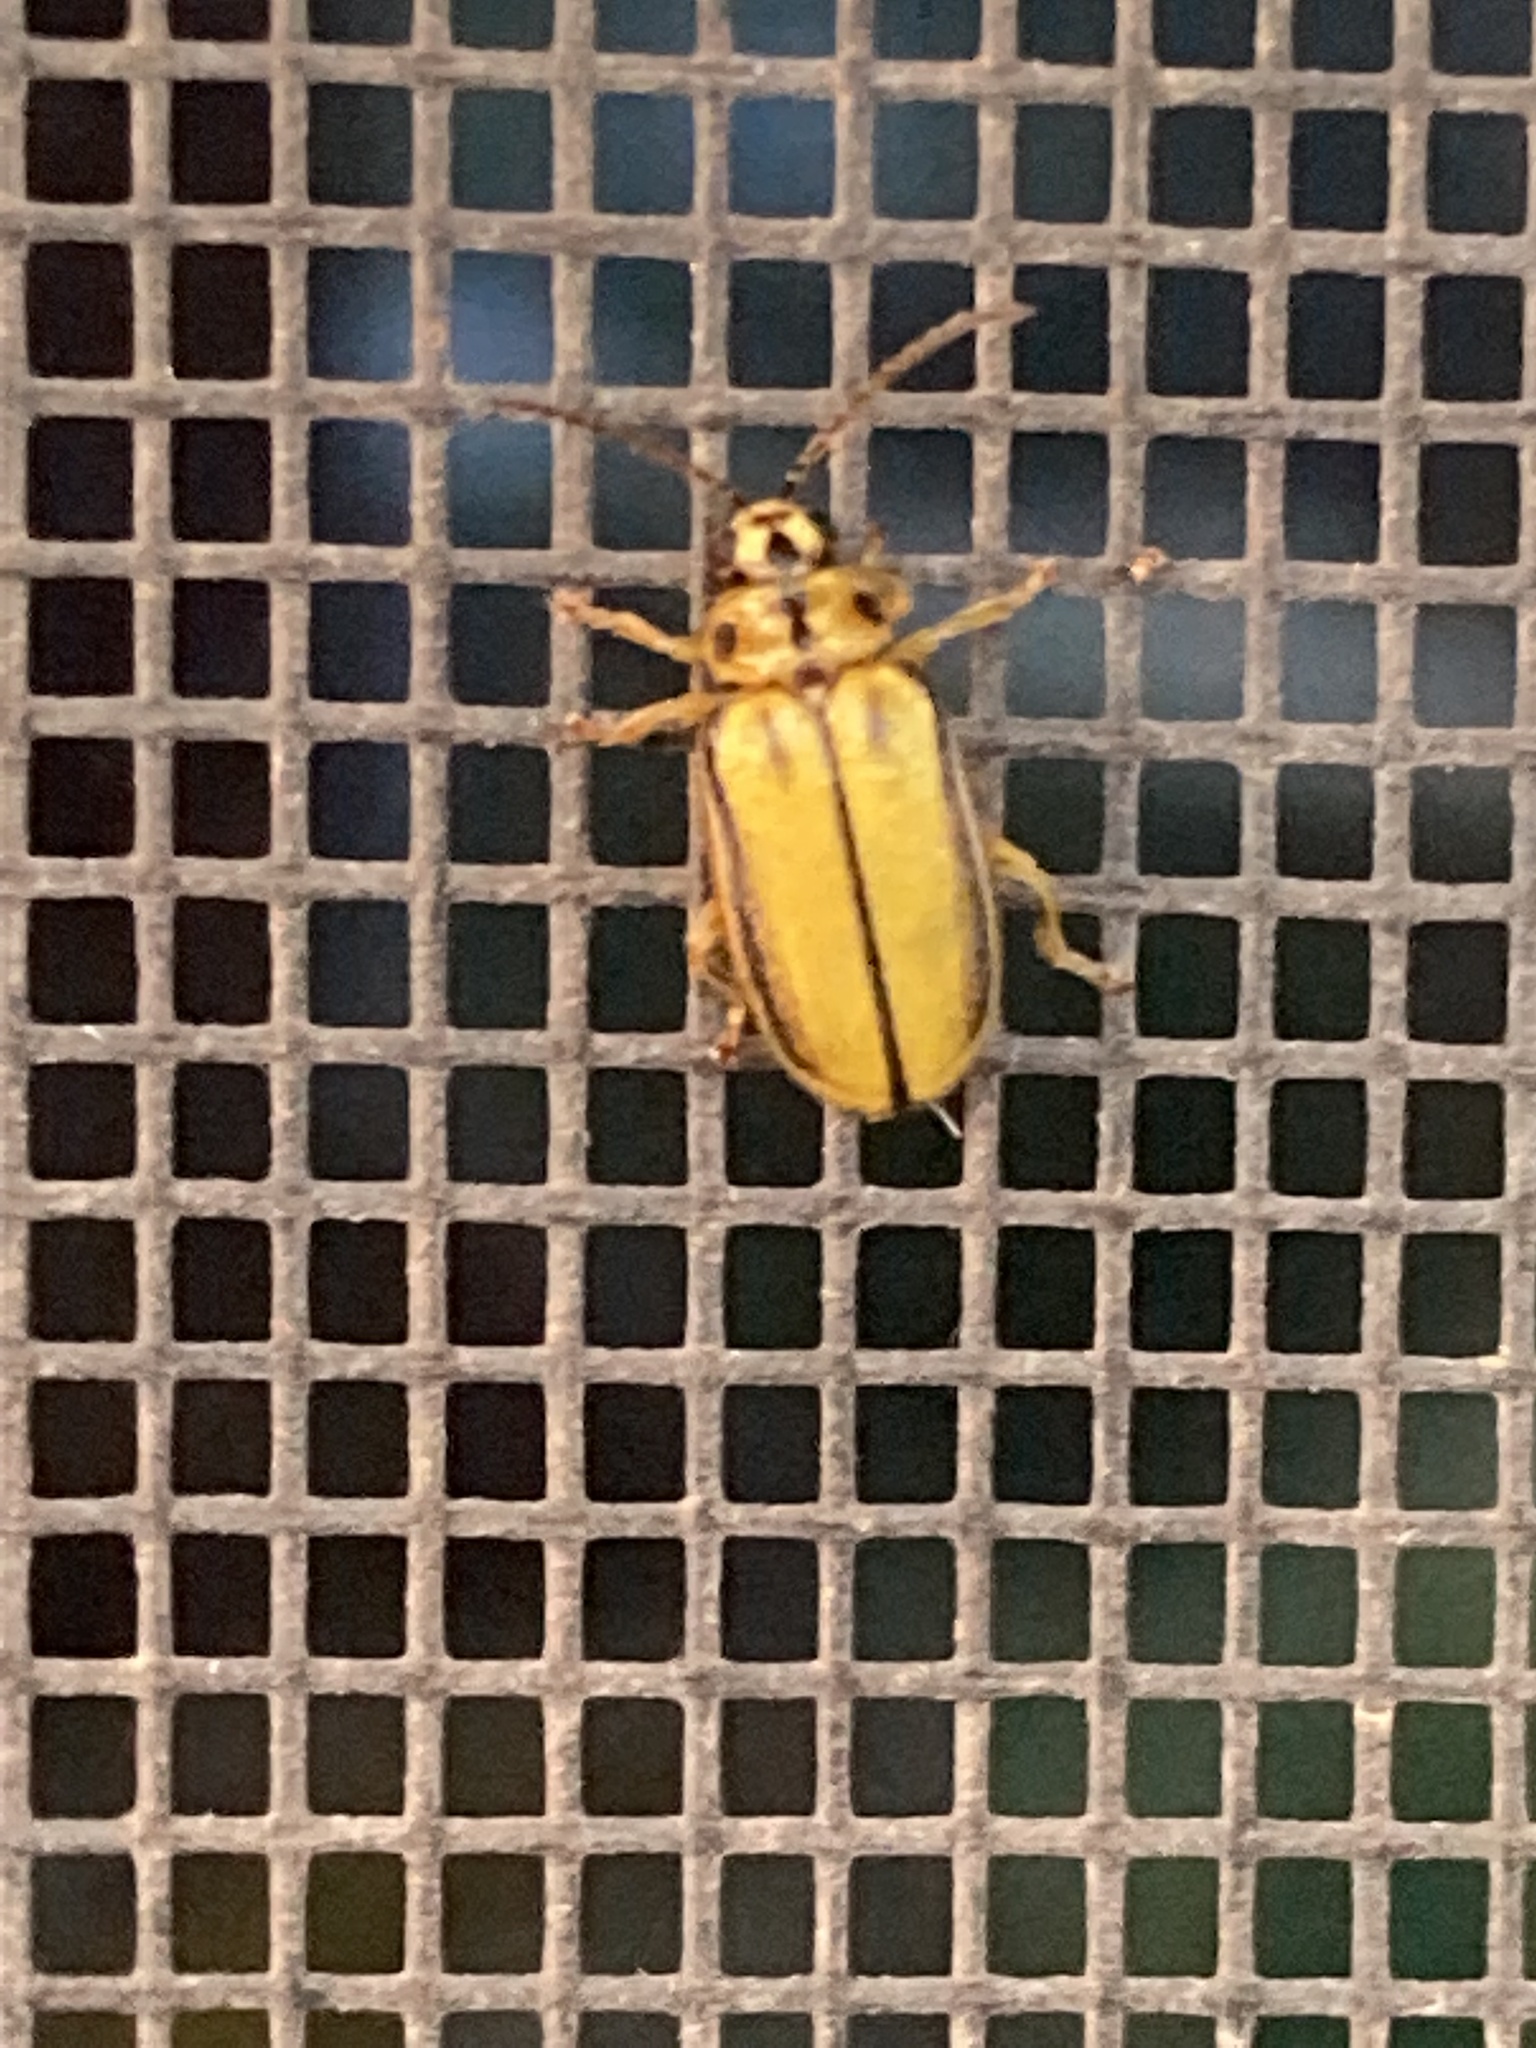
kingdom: Animalia
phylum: Arthropoda
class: Insecta
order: Coleoptera
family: Chrysomelidae
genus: Xanthogaleruca
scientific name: Xanthogaleruca luteola
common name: Elm leaf beetle
